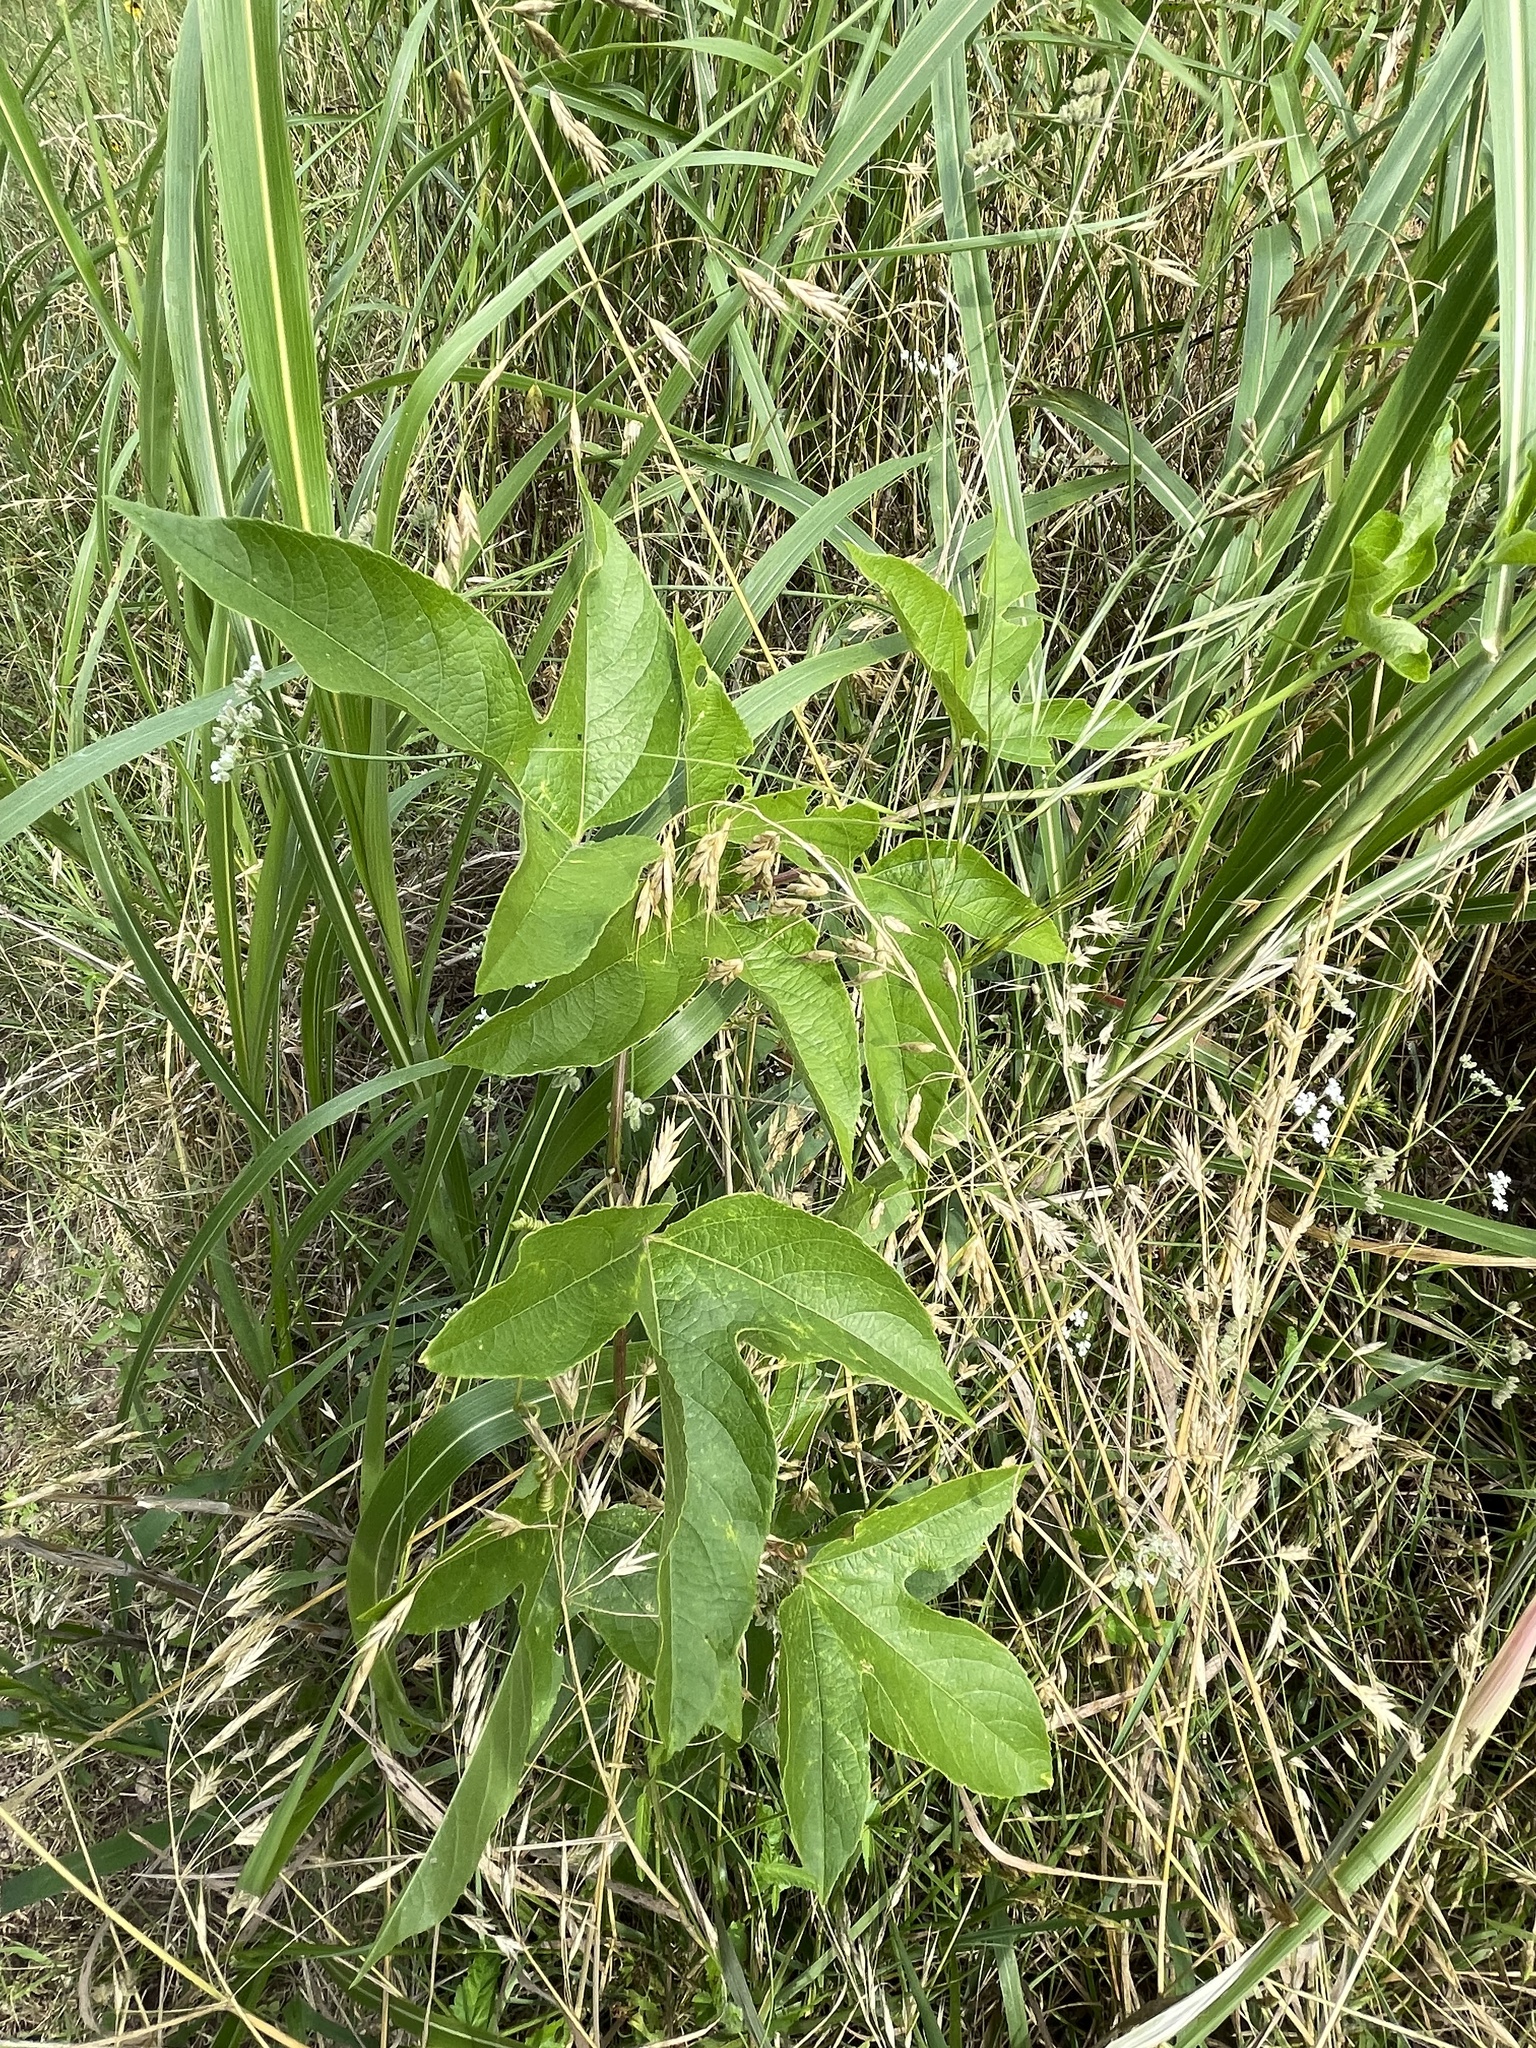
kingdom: Plantae
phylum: Tracheophyta
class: Magnoliopsida
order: Malpighiales
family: Passifloraceae
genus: Passiflora
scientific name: Passiflora incarnata
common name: Apricot-vine
